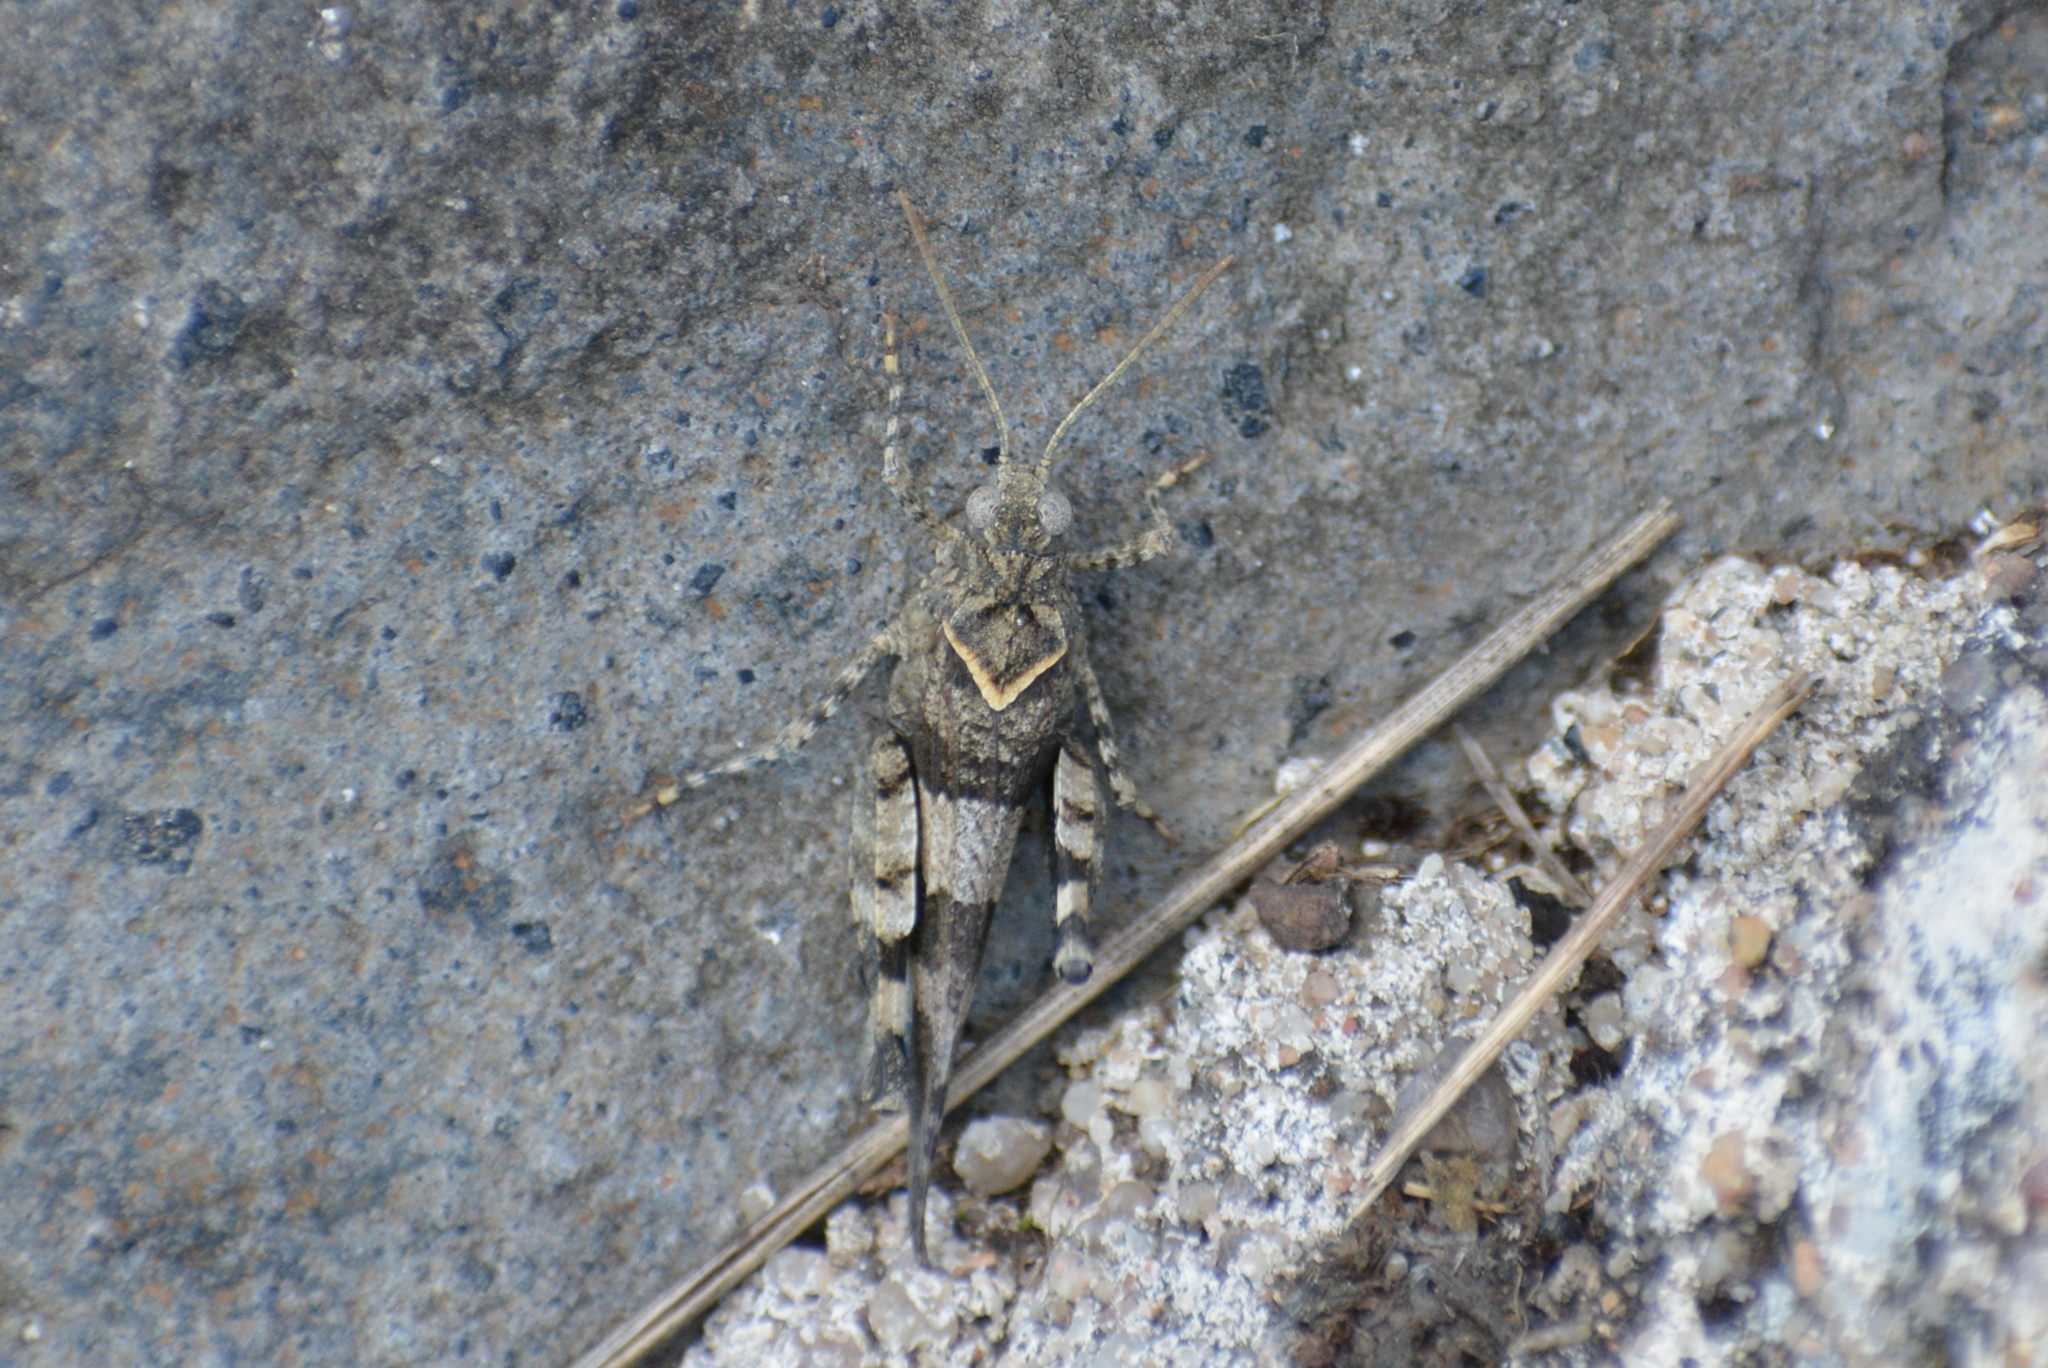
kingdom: Animalia
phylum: Arthropoda
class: Insecta
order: Orthoptera
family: Acrididae
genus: Oedipoda
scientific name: Oedipoda caerulescens
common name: Blue-winged grasshopper
